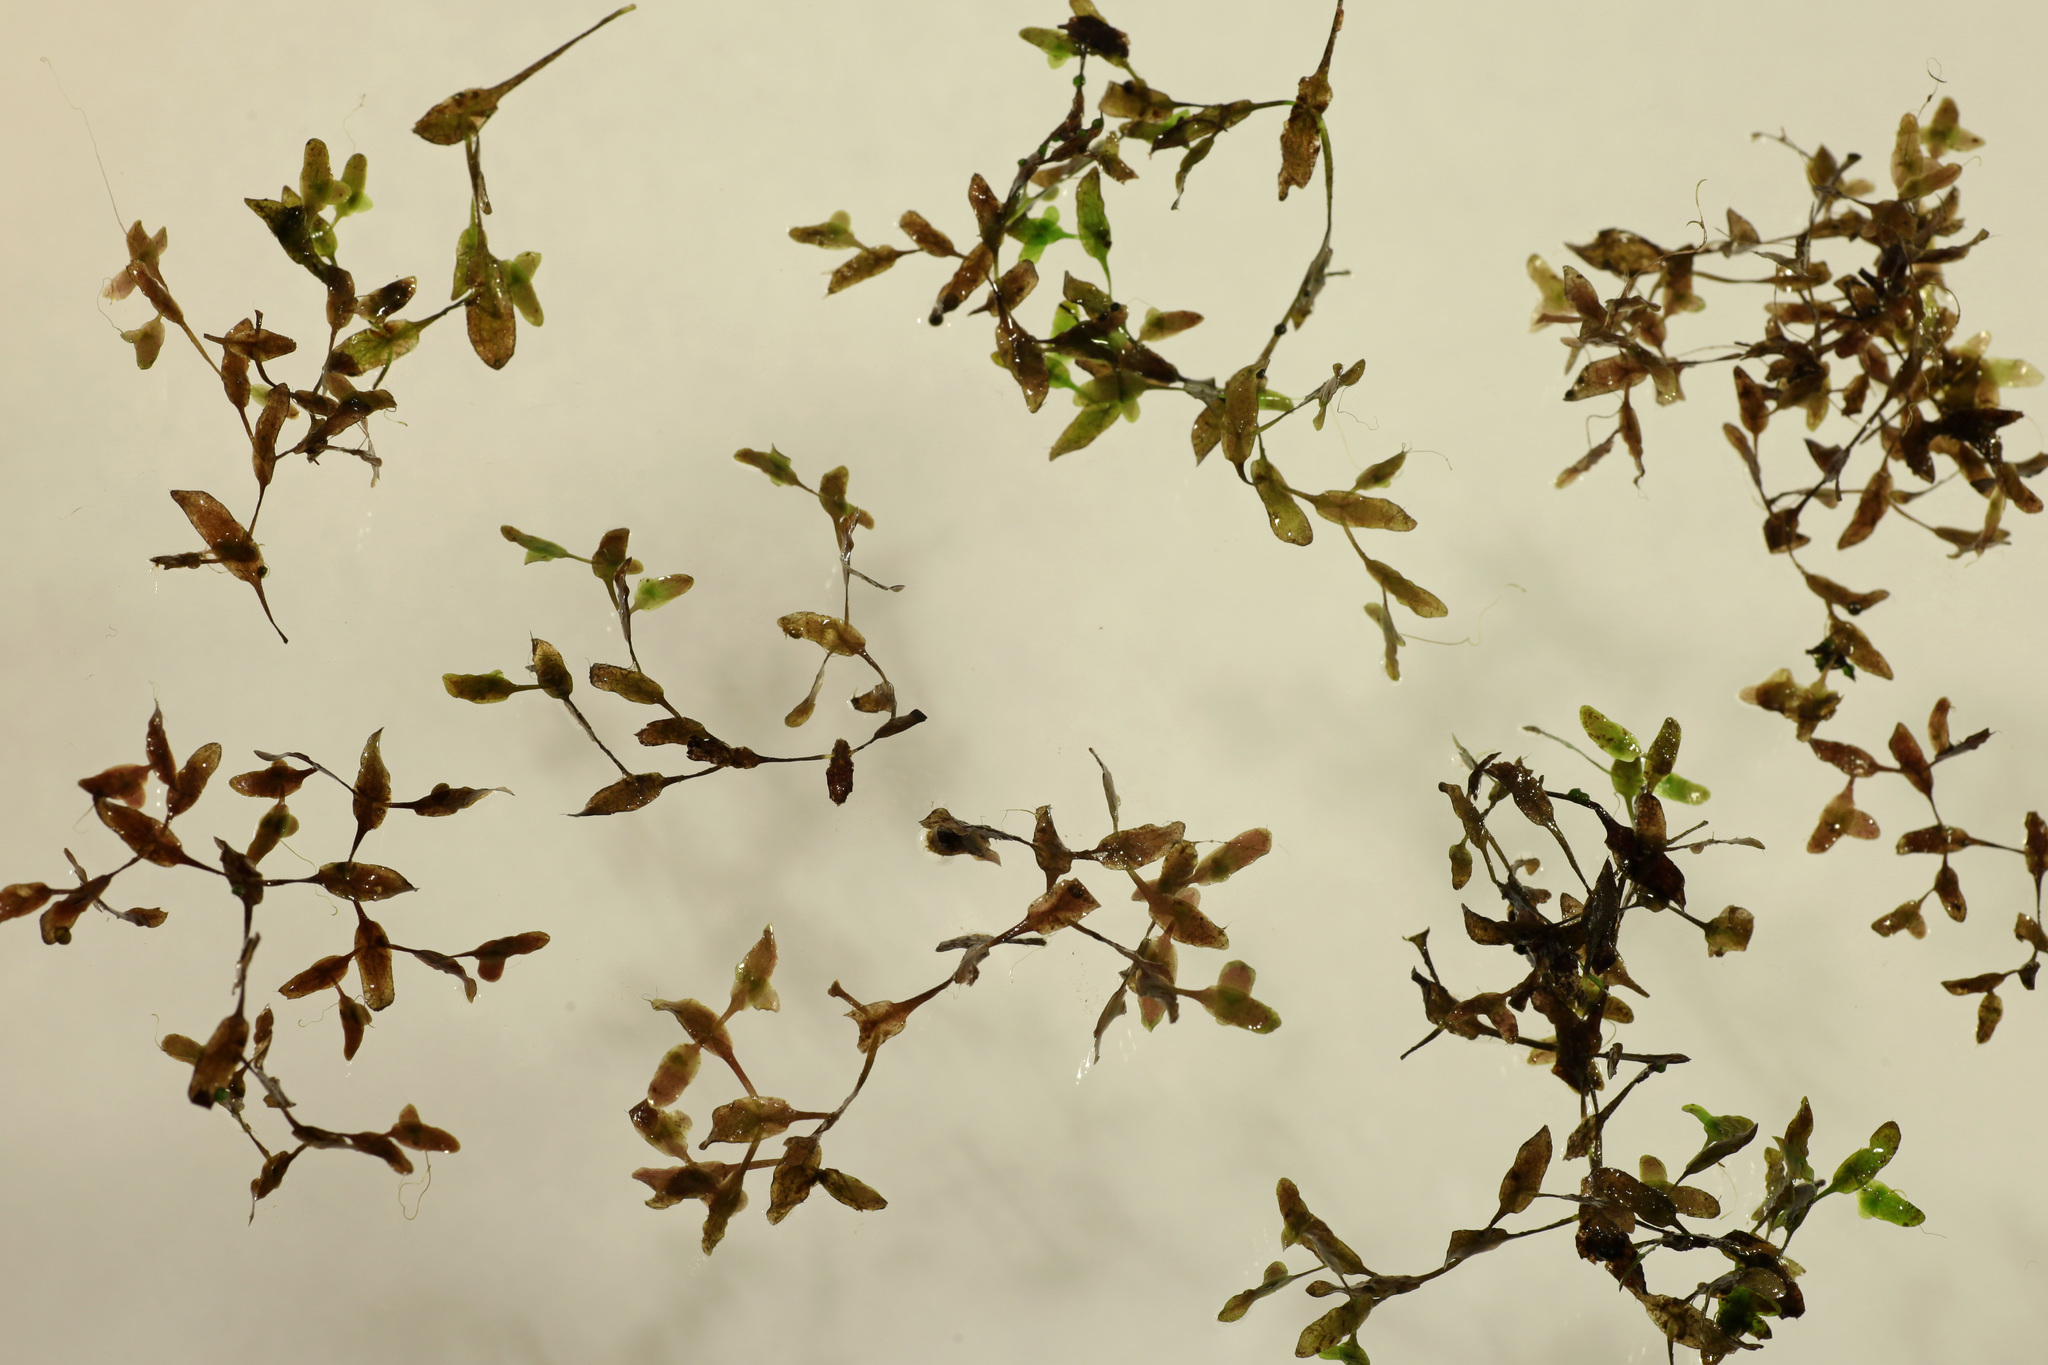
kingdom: Plantae
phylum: Tracheophyta
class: Liliopsida
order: Alismatales
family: Araceae
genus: Lemna
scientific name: Lemna trisulca
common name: Ivy-leaved duckweed
